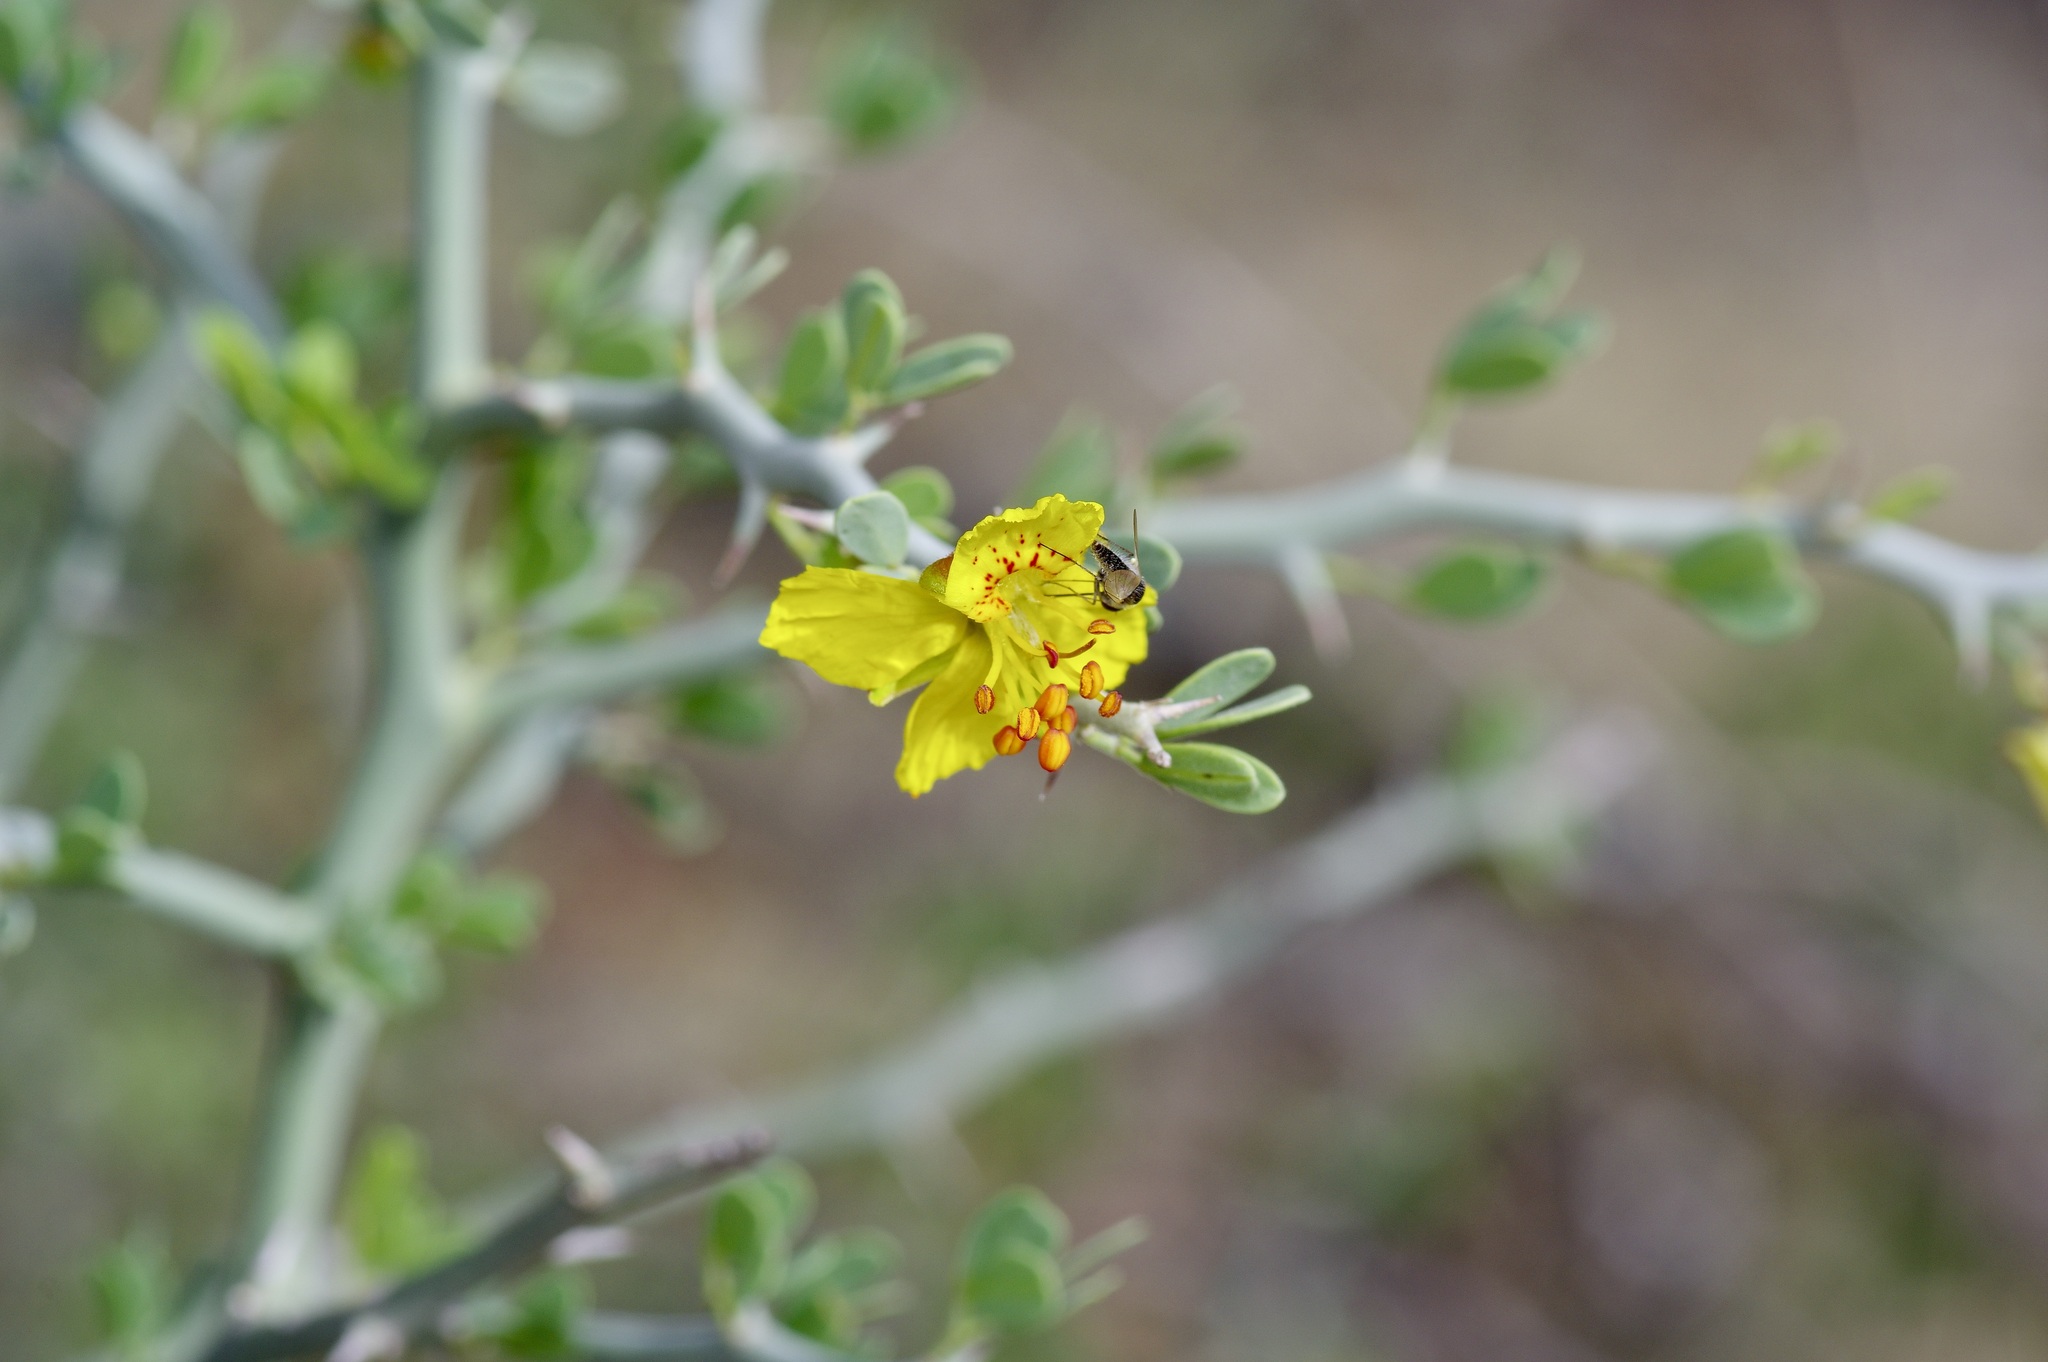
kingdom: Plantae
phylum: Tracheophyta
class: Magnoliopsida
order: Fabales
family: Fabaceae
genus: Parkinsonia
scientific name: Parkinsonia texana
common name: Texas paloverde
